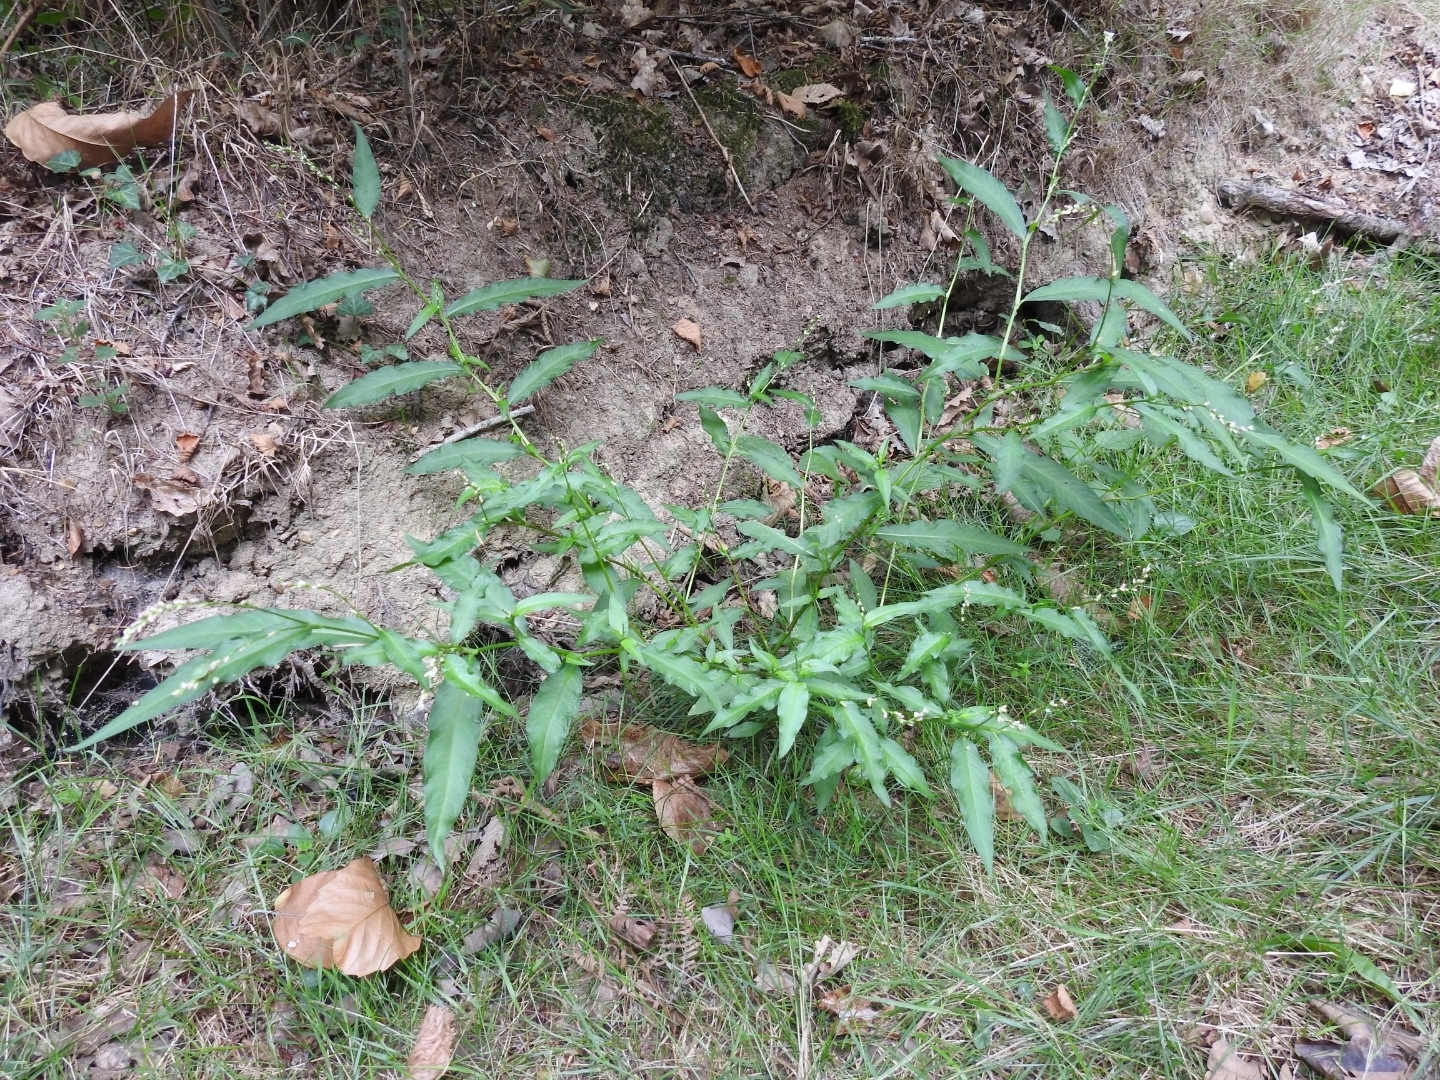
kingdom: Plantae
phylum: Tracheophyta
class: Magnoliopsida
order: Caryophyllales
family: Polygonaceae
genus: Persicaria
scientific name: Persicaria hydropiper
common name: Water-pepper
